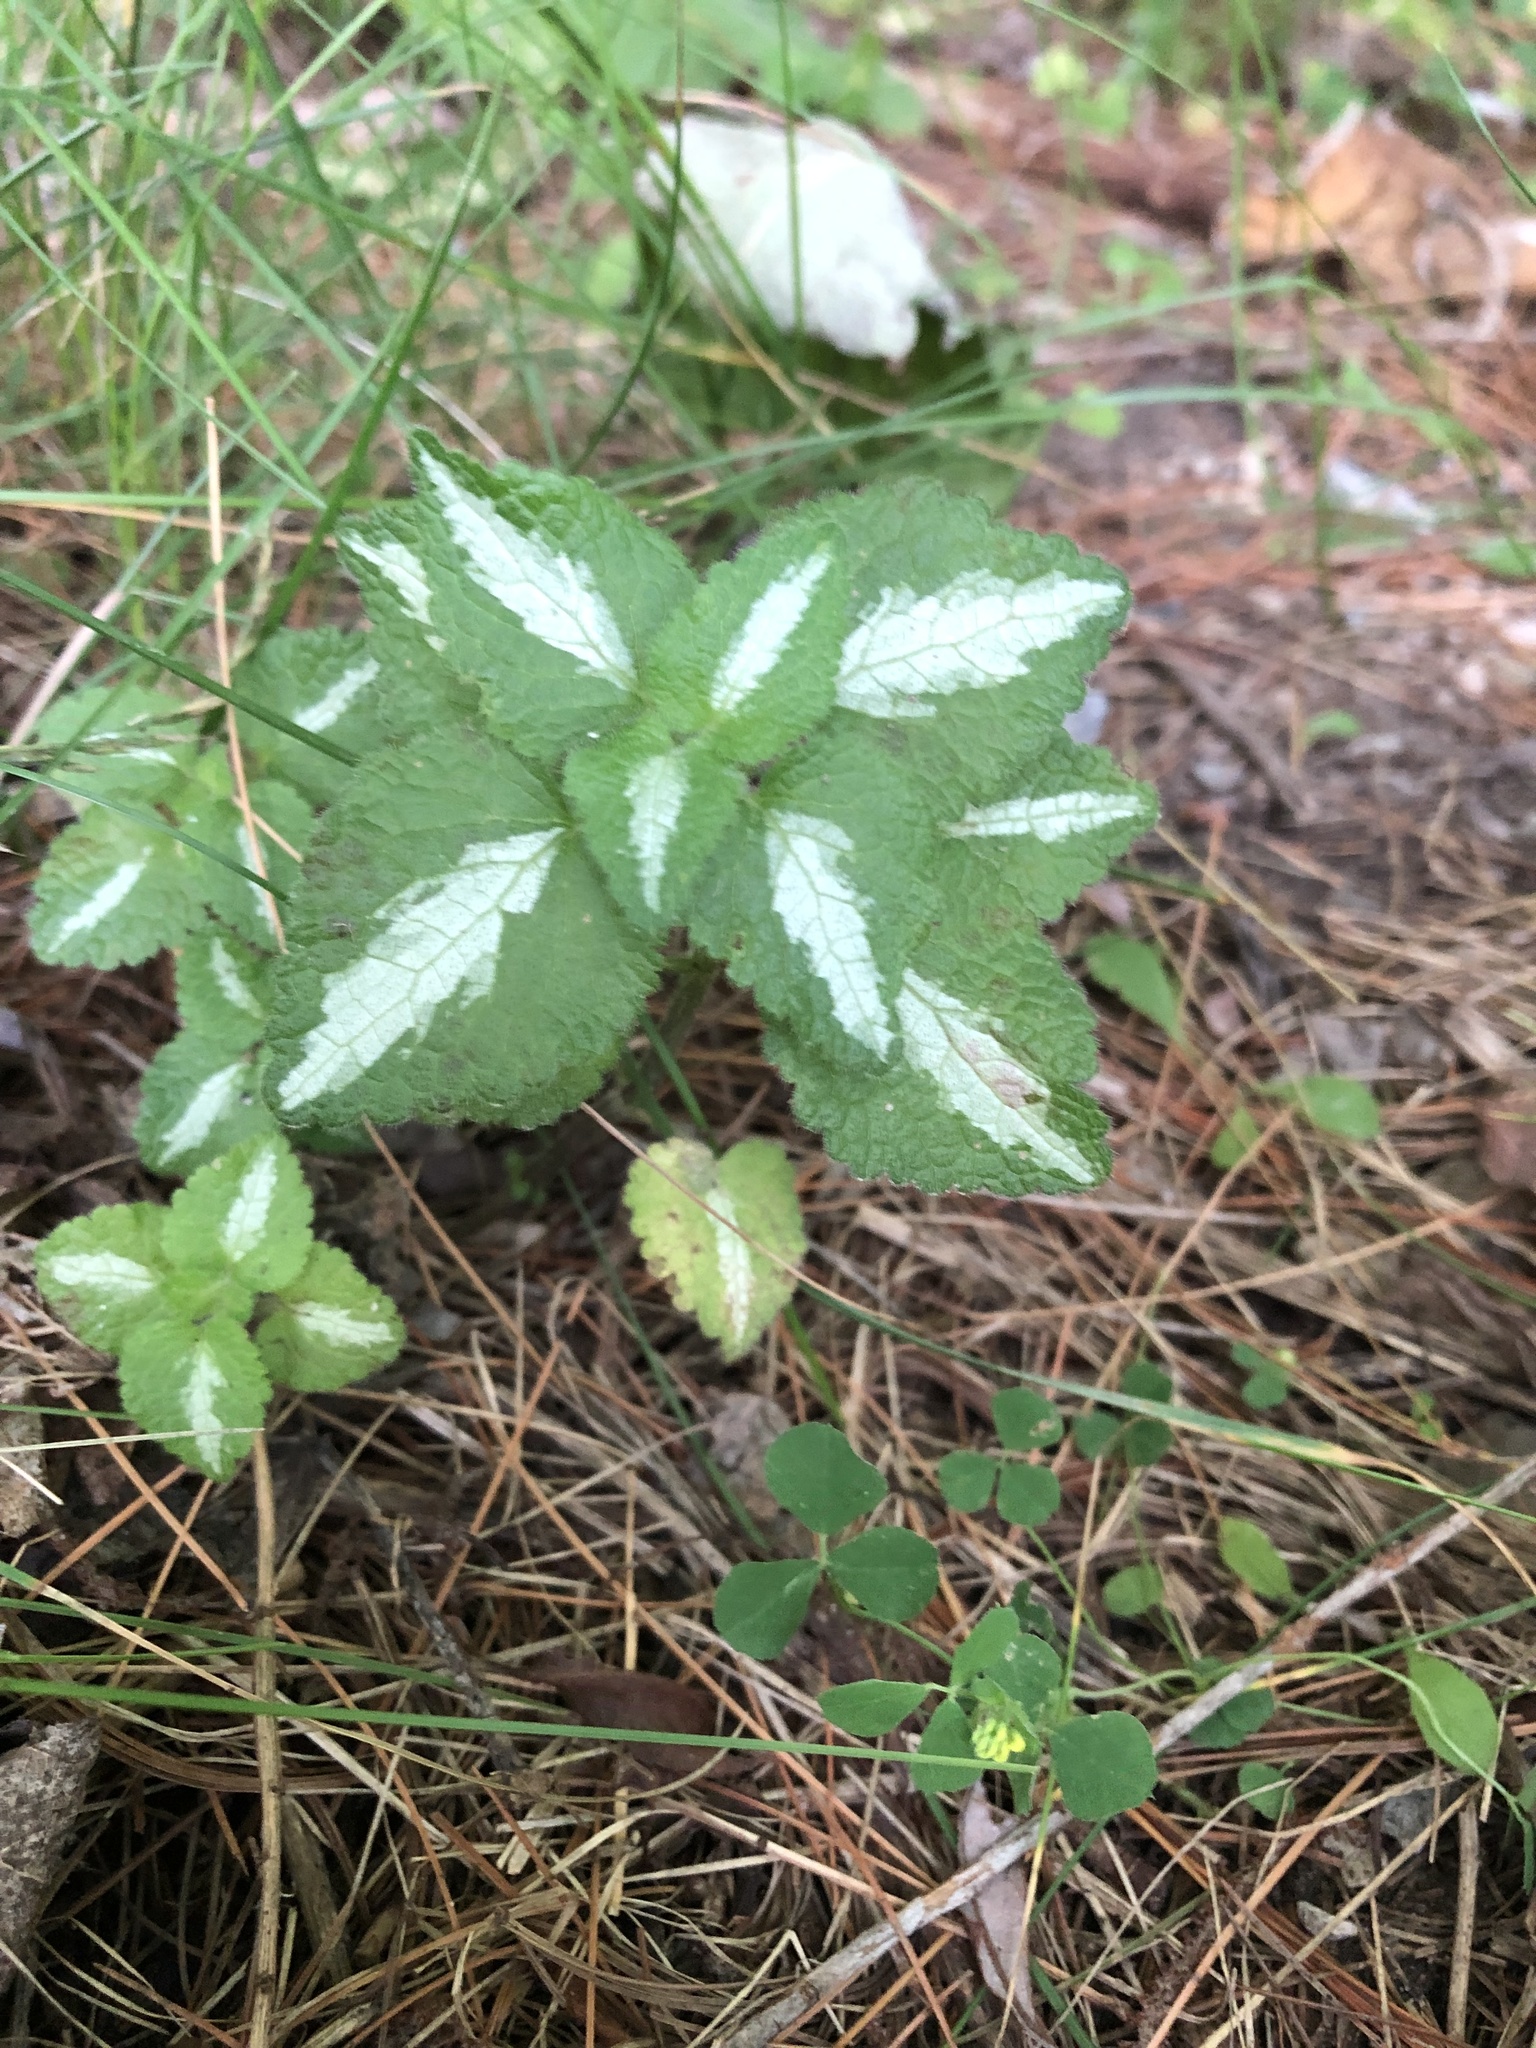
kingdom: Plantae
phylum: Tracheophyta
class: Magnoliopsida
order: Lamiales
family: Lamiaceae
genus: Lamium
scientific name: Lamium maculatum
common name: Spotted dead-nettle
